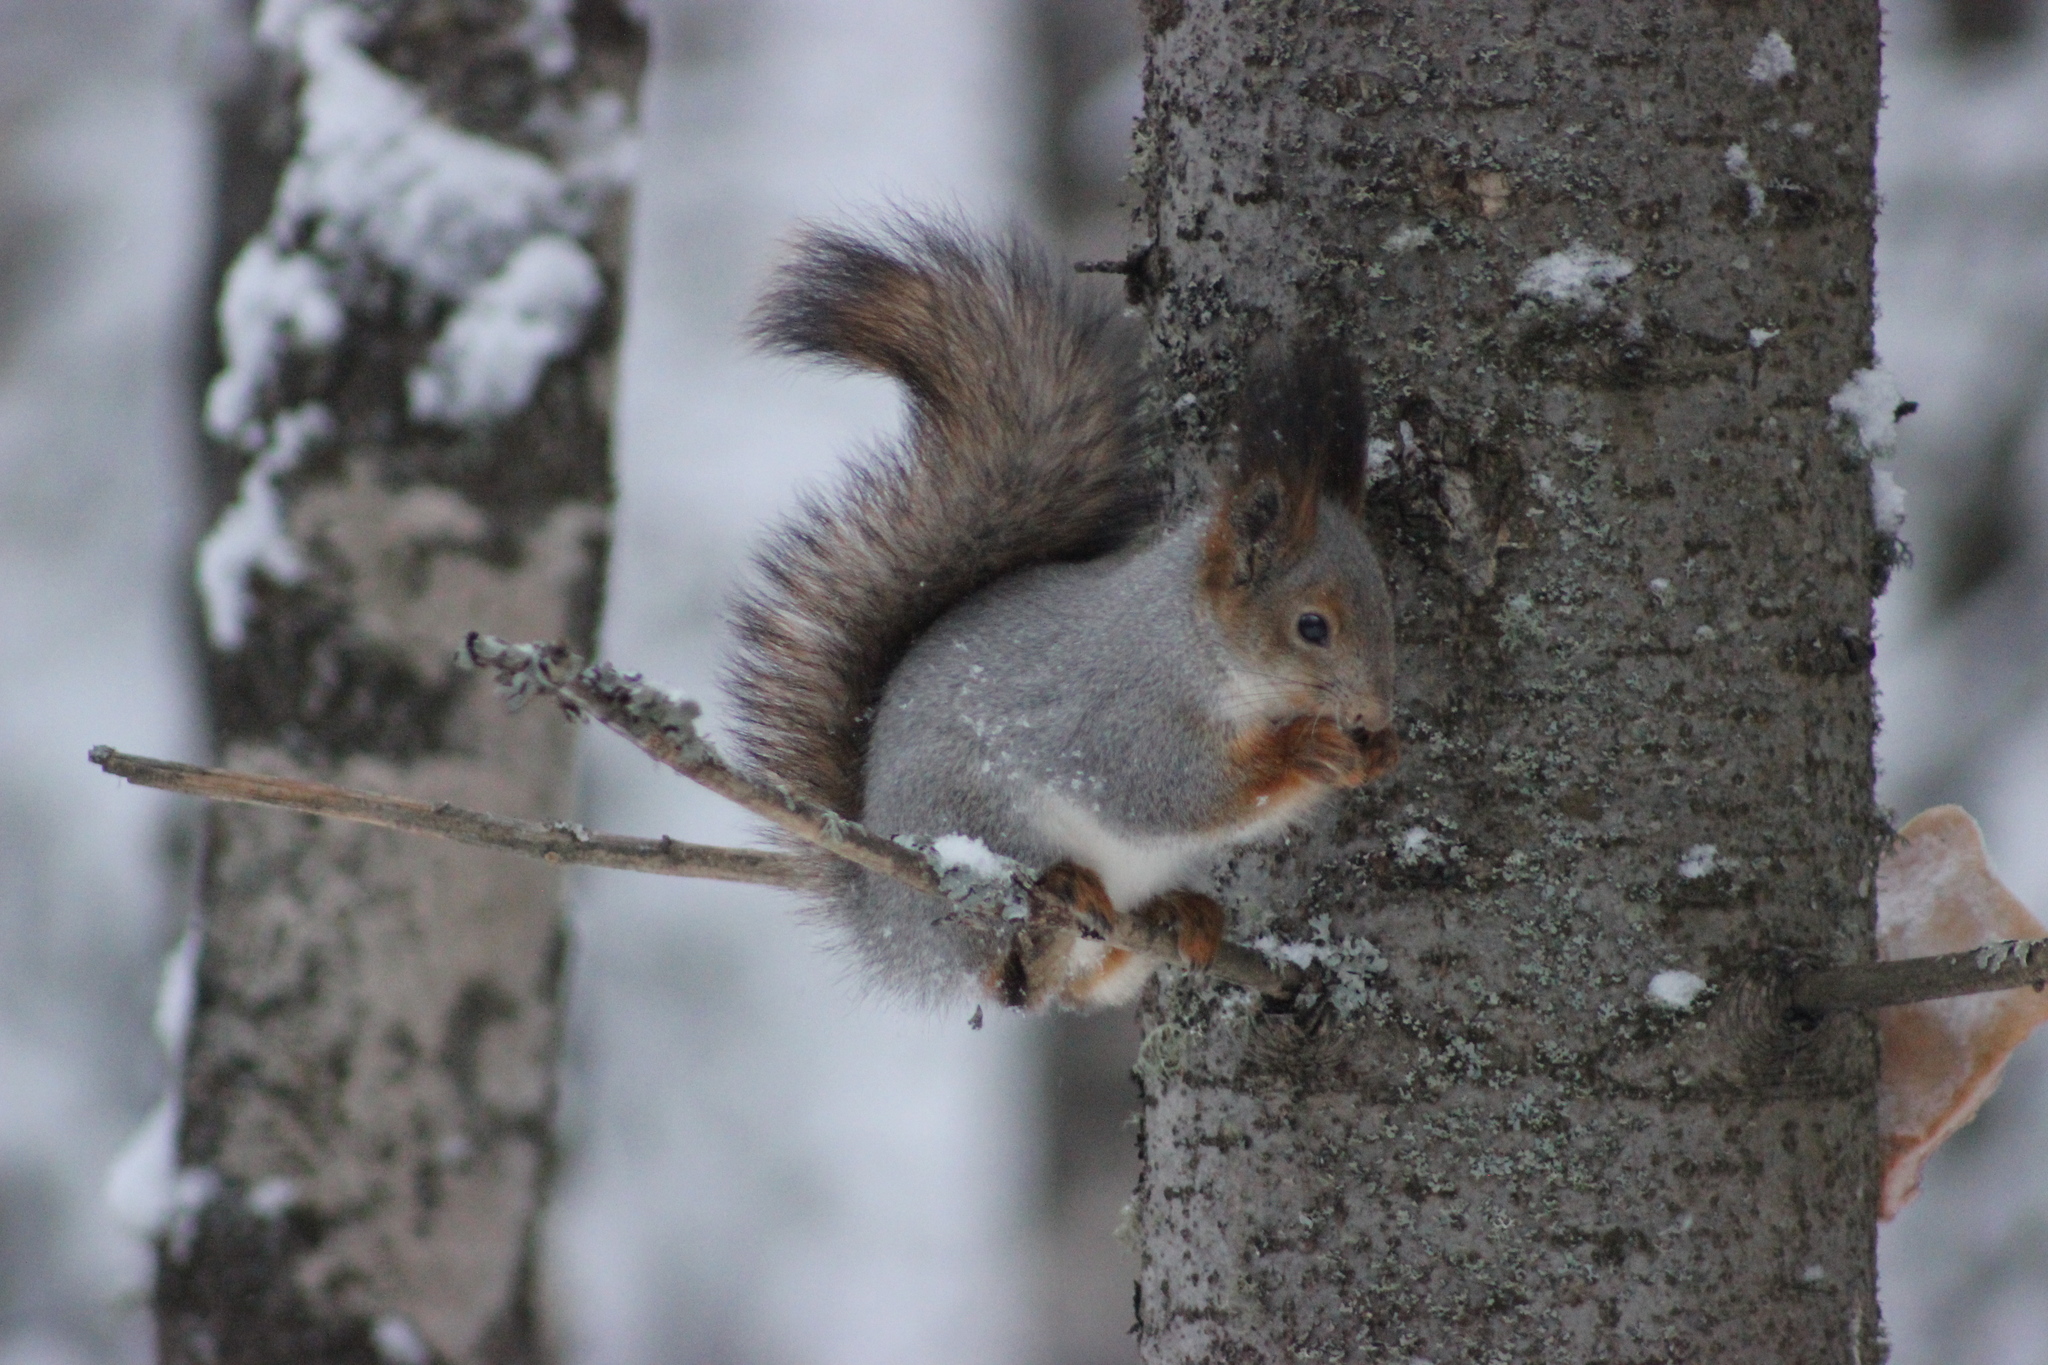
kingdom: Animalia
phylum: Chordata
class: Mammalia
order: Rodentia
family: Sciuridae
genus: Sciurus
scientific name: Sciurus vulgaris
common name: Eurasian red squirrel
